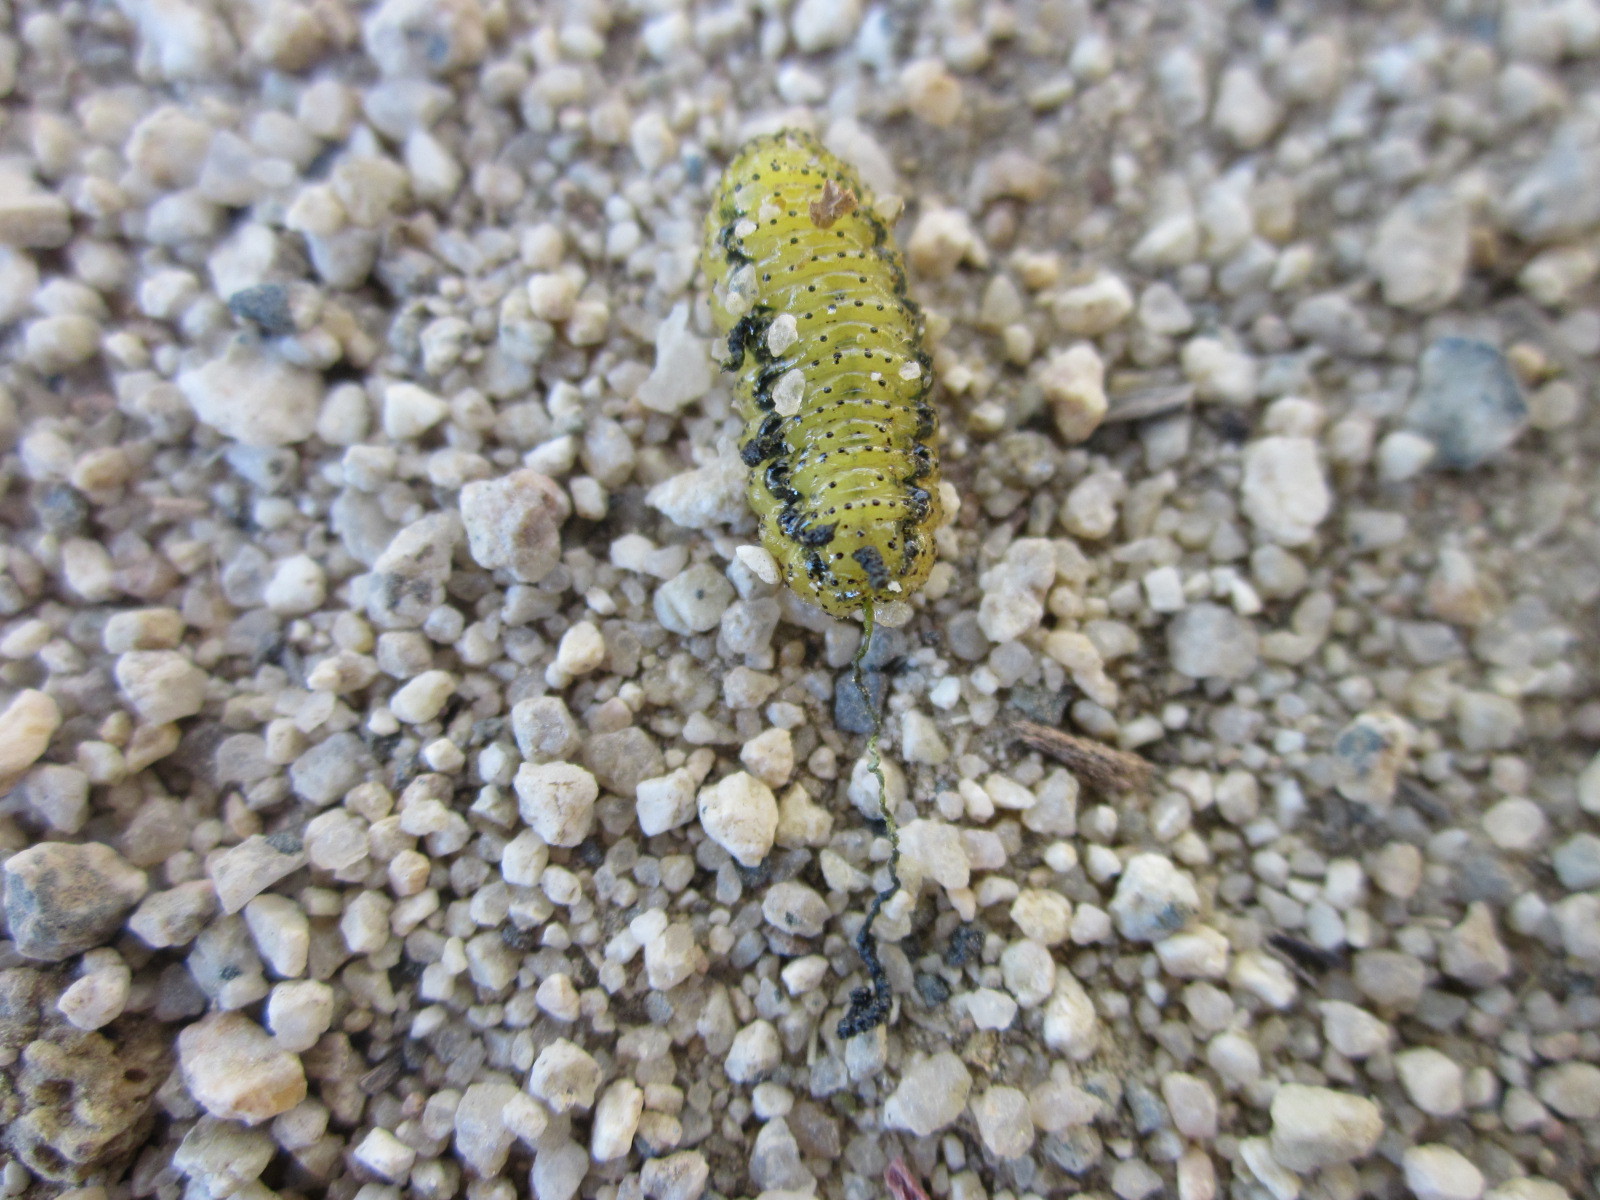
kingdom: Animalia
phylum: Arthropoda
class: Insecta
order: Coleoptera
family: Curculionidae
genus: Gonipterus
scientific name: Gonipterus platensis
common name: Eucalyptus snout beetle
